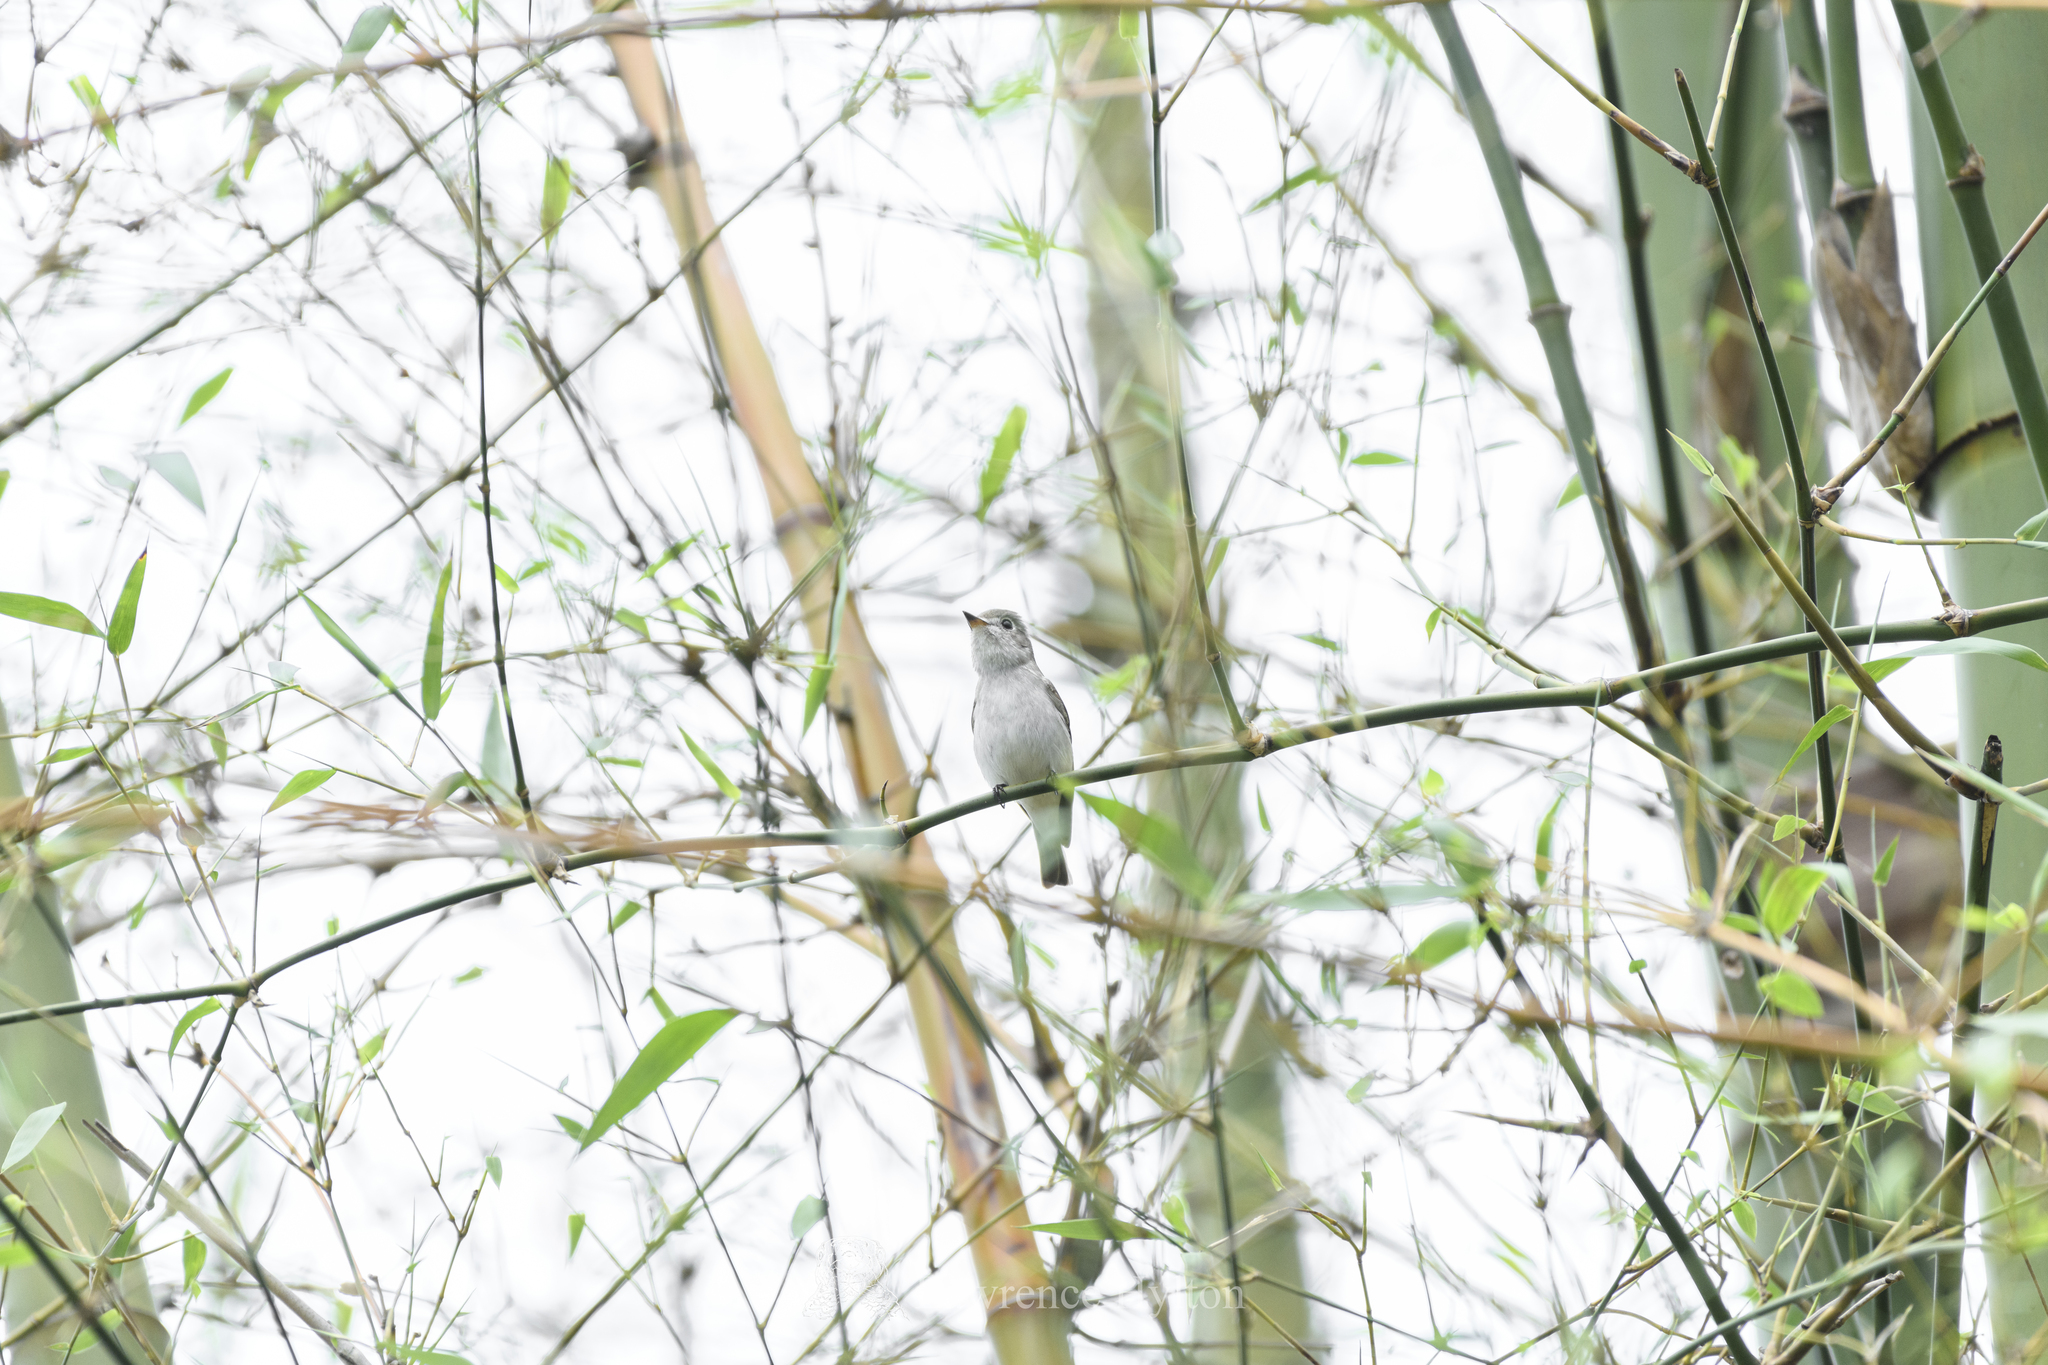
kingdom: Animalia
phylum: Chordata
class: Aves
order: Passeriformes
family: Muscicapidae
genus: Muscicapa
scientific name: Muscicapa latirostris
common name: Asian brown flycatcher
